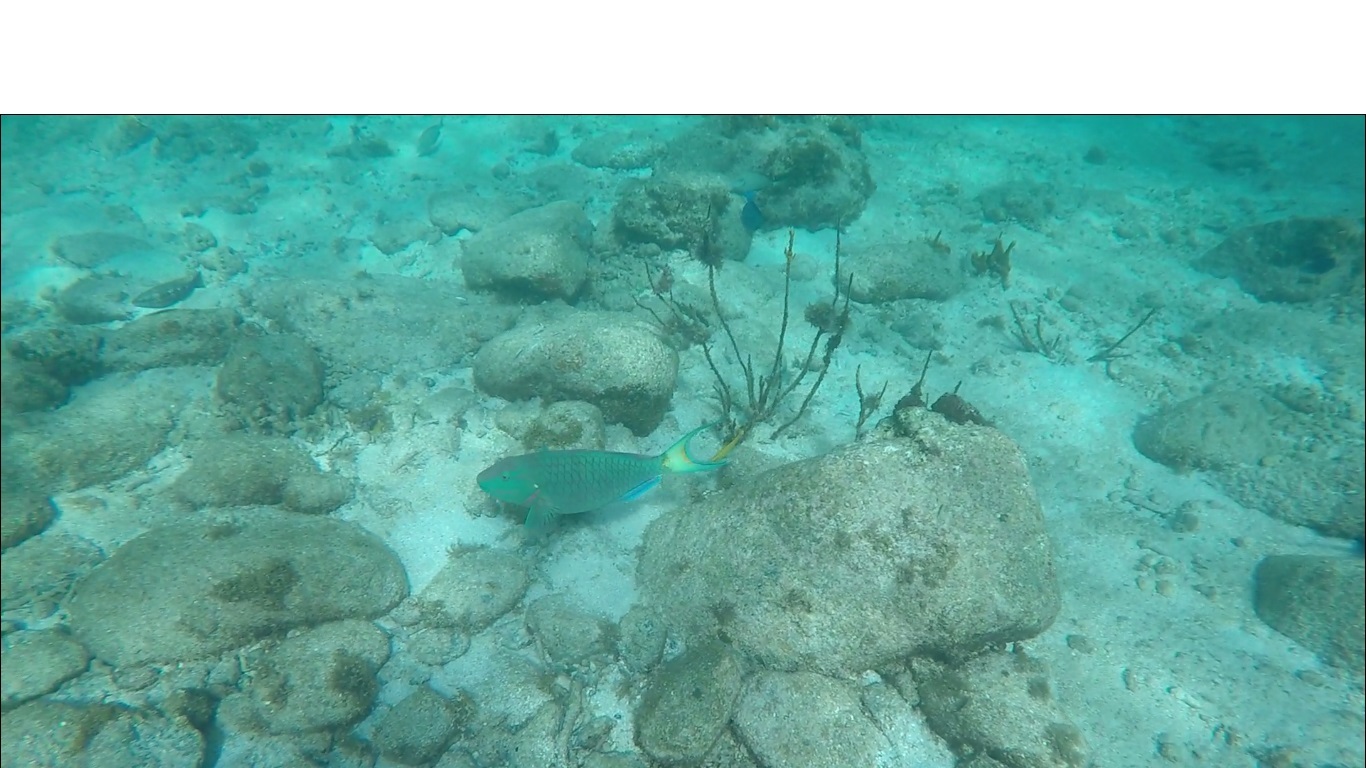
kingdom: Animalia
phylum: Chordata
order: Perciformes
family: Scaridae
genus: Sparisoma
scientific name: Sparisoma viride
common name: Stoplight parrotfish
